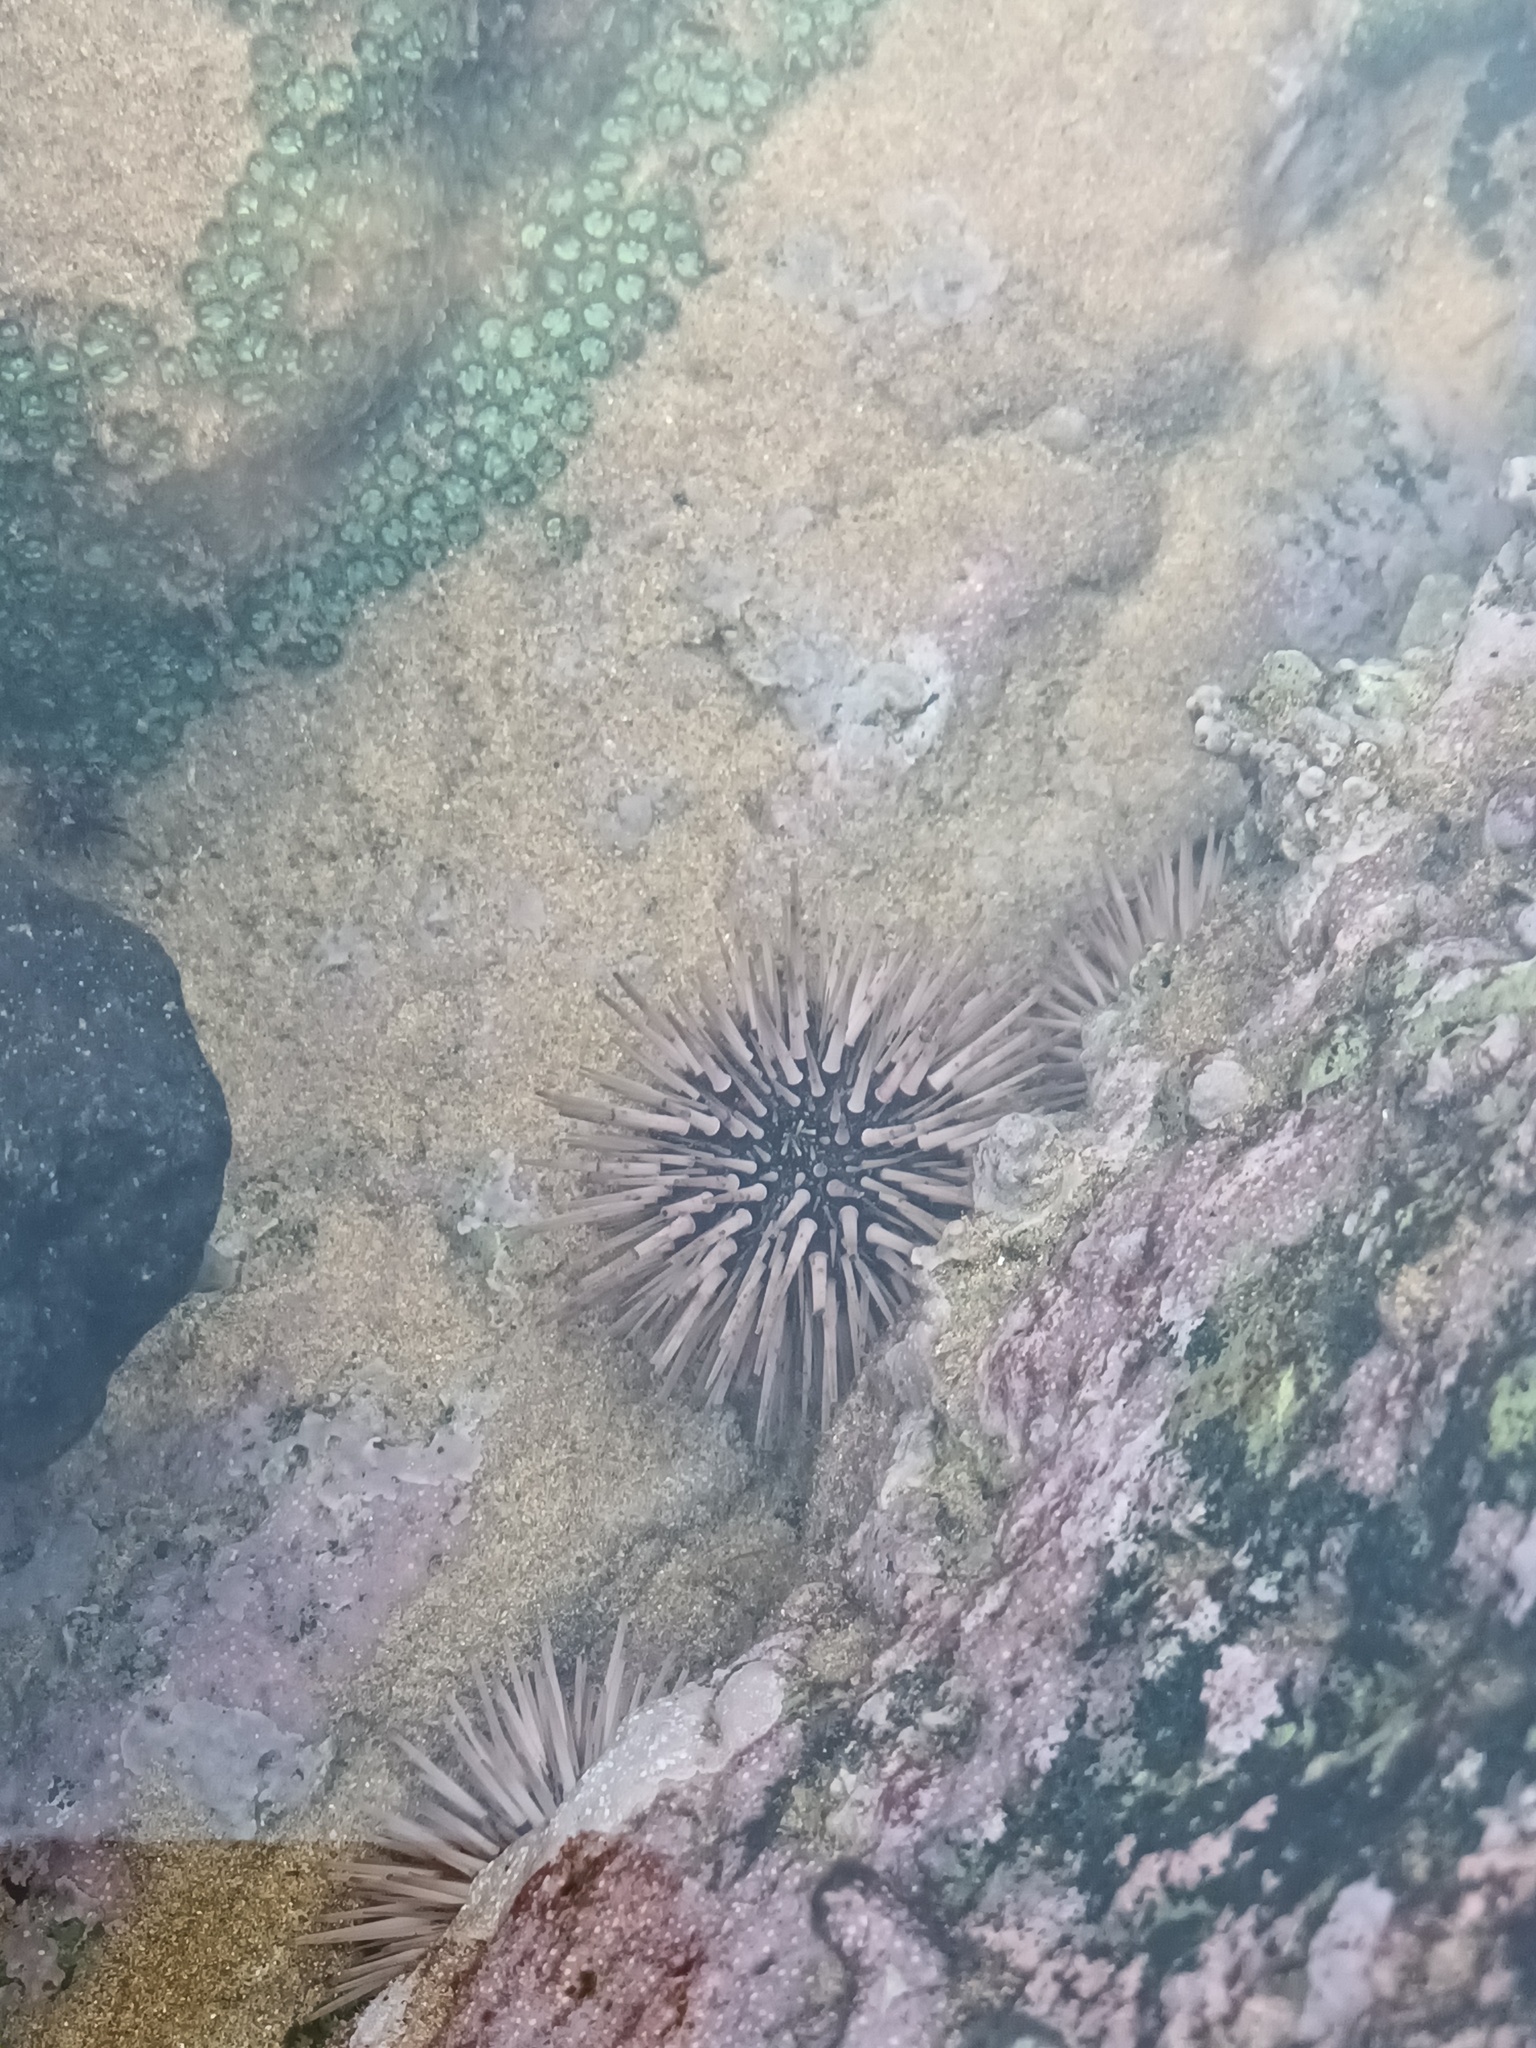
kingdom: Animalia
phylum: Echinodermata
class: Echinoidea
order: Camarodonta
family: Echinometridae
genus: Echinometra
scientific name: Echinometra mathaei
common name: Rock-boring urchin
